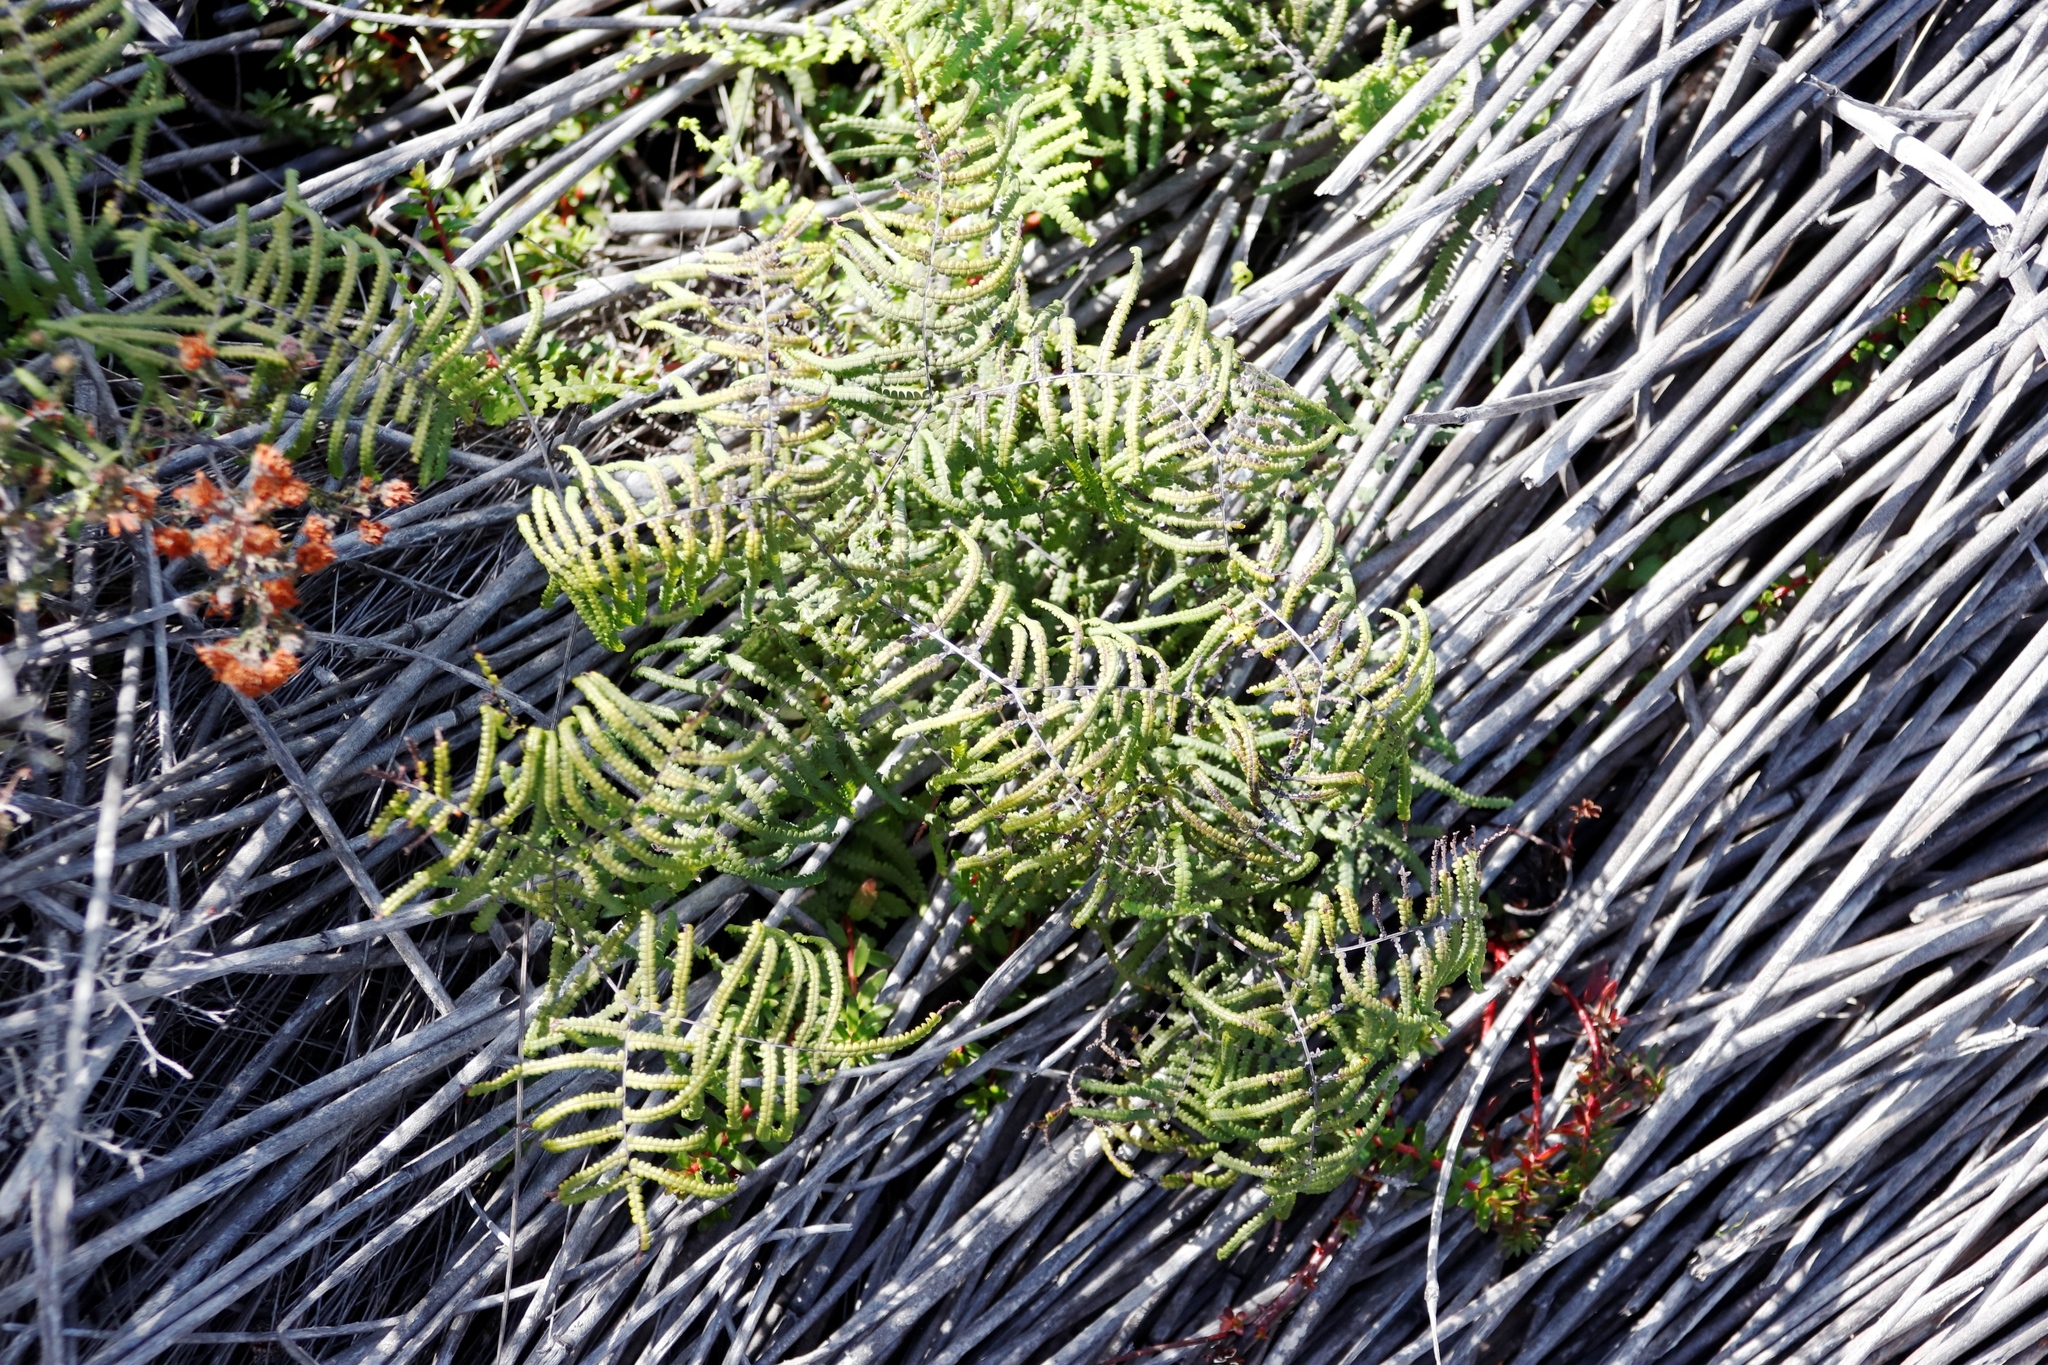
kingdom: Plantae
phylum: Tracheophyta
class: Polypodiopsida
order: Gleicheniales
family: Gleicheniaceae
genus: Gleichenia
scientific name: Gleichenia polypodioides
